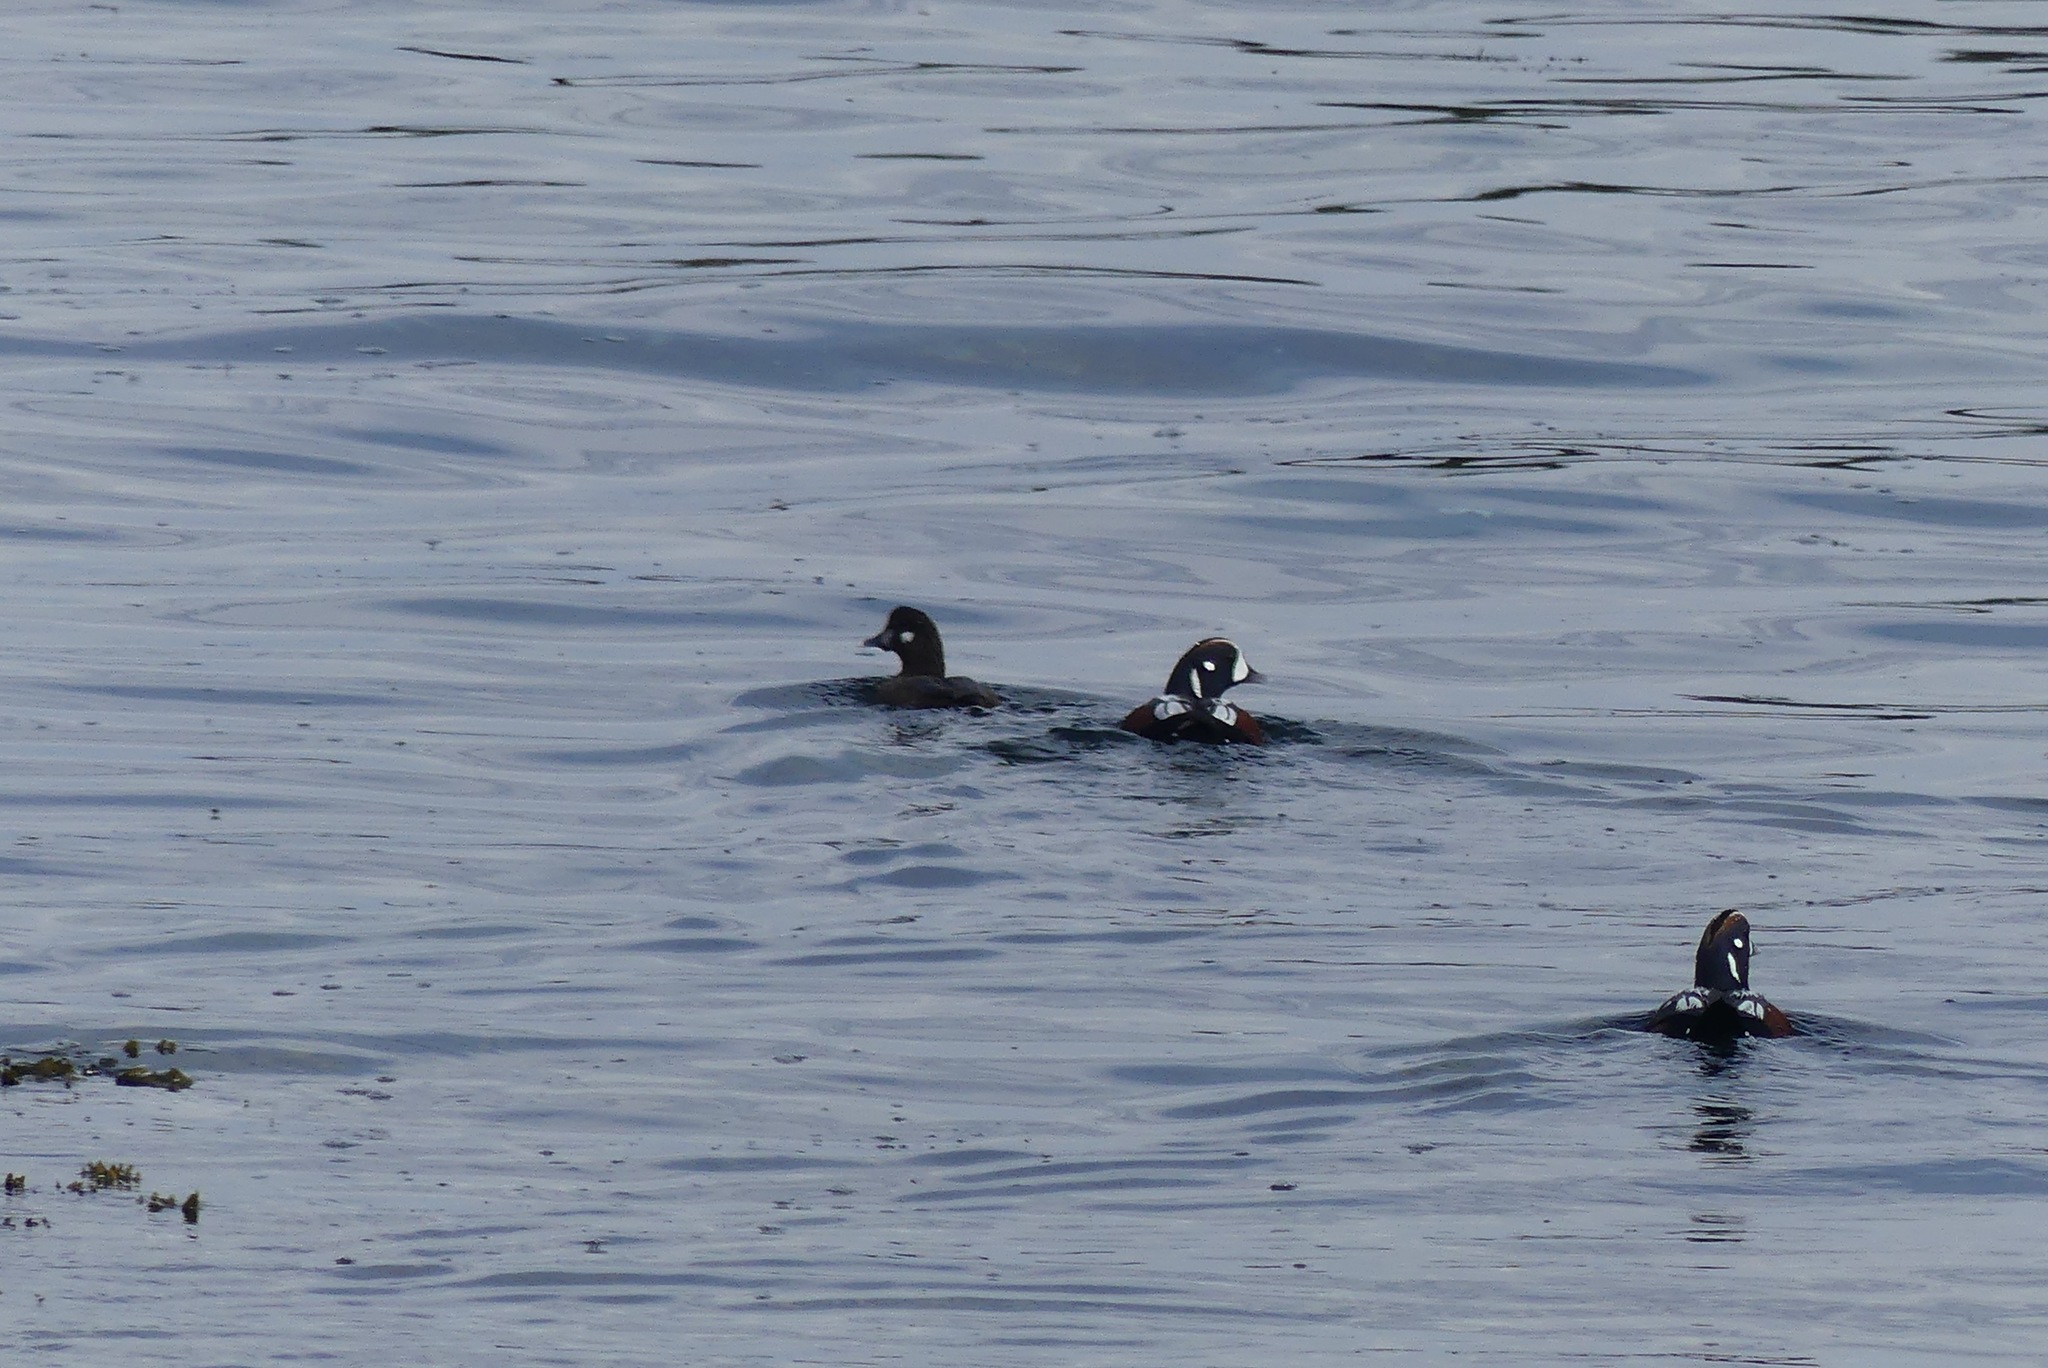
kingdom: Animalia
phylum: Chordata
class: Aves
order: Anseriformes
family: Anatidae
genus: Histrionicus
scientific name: Histrionicus histrionicus
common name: Harlequin duck
